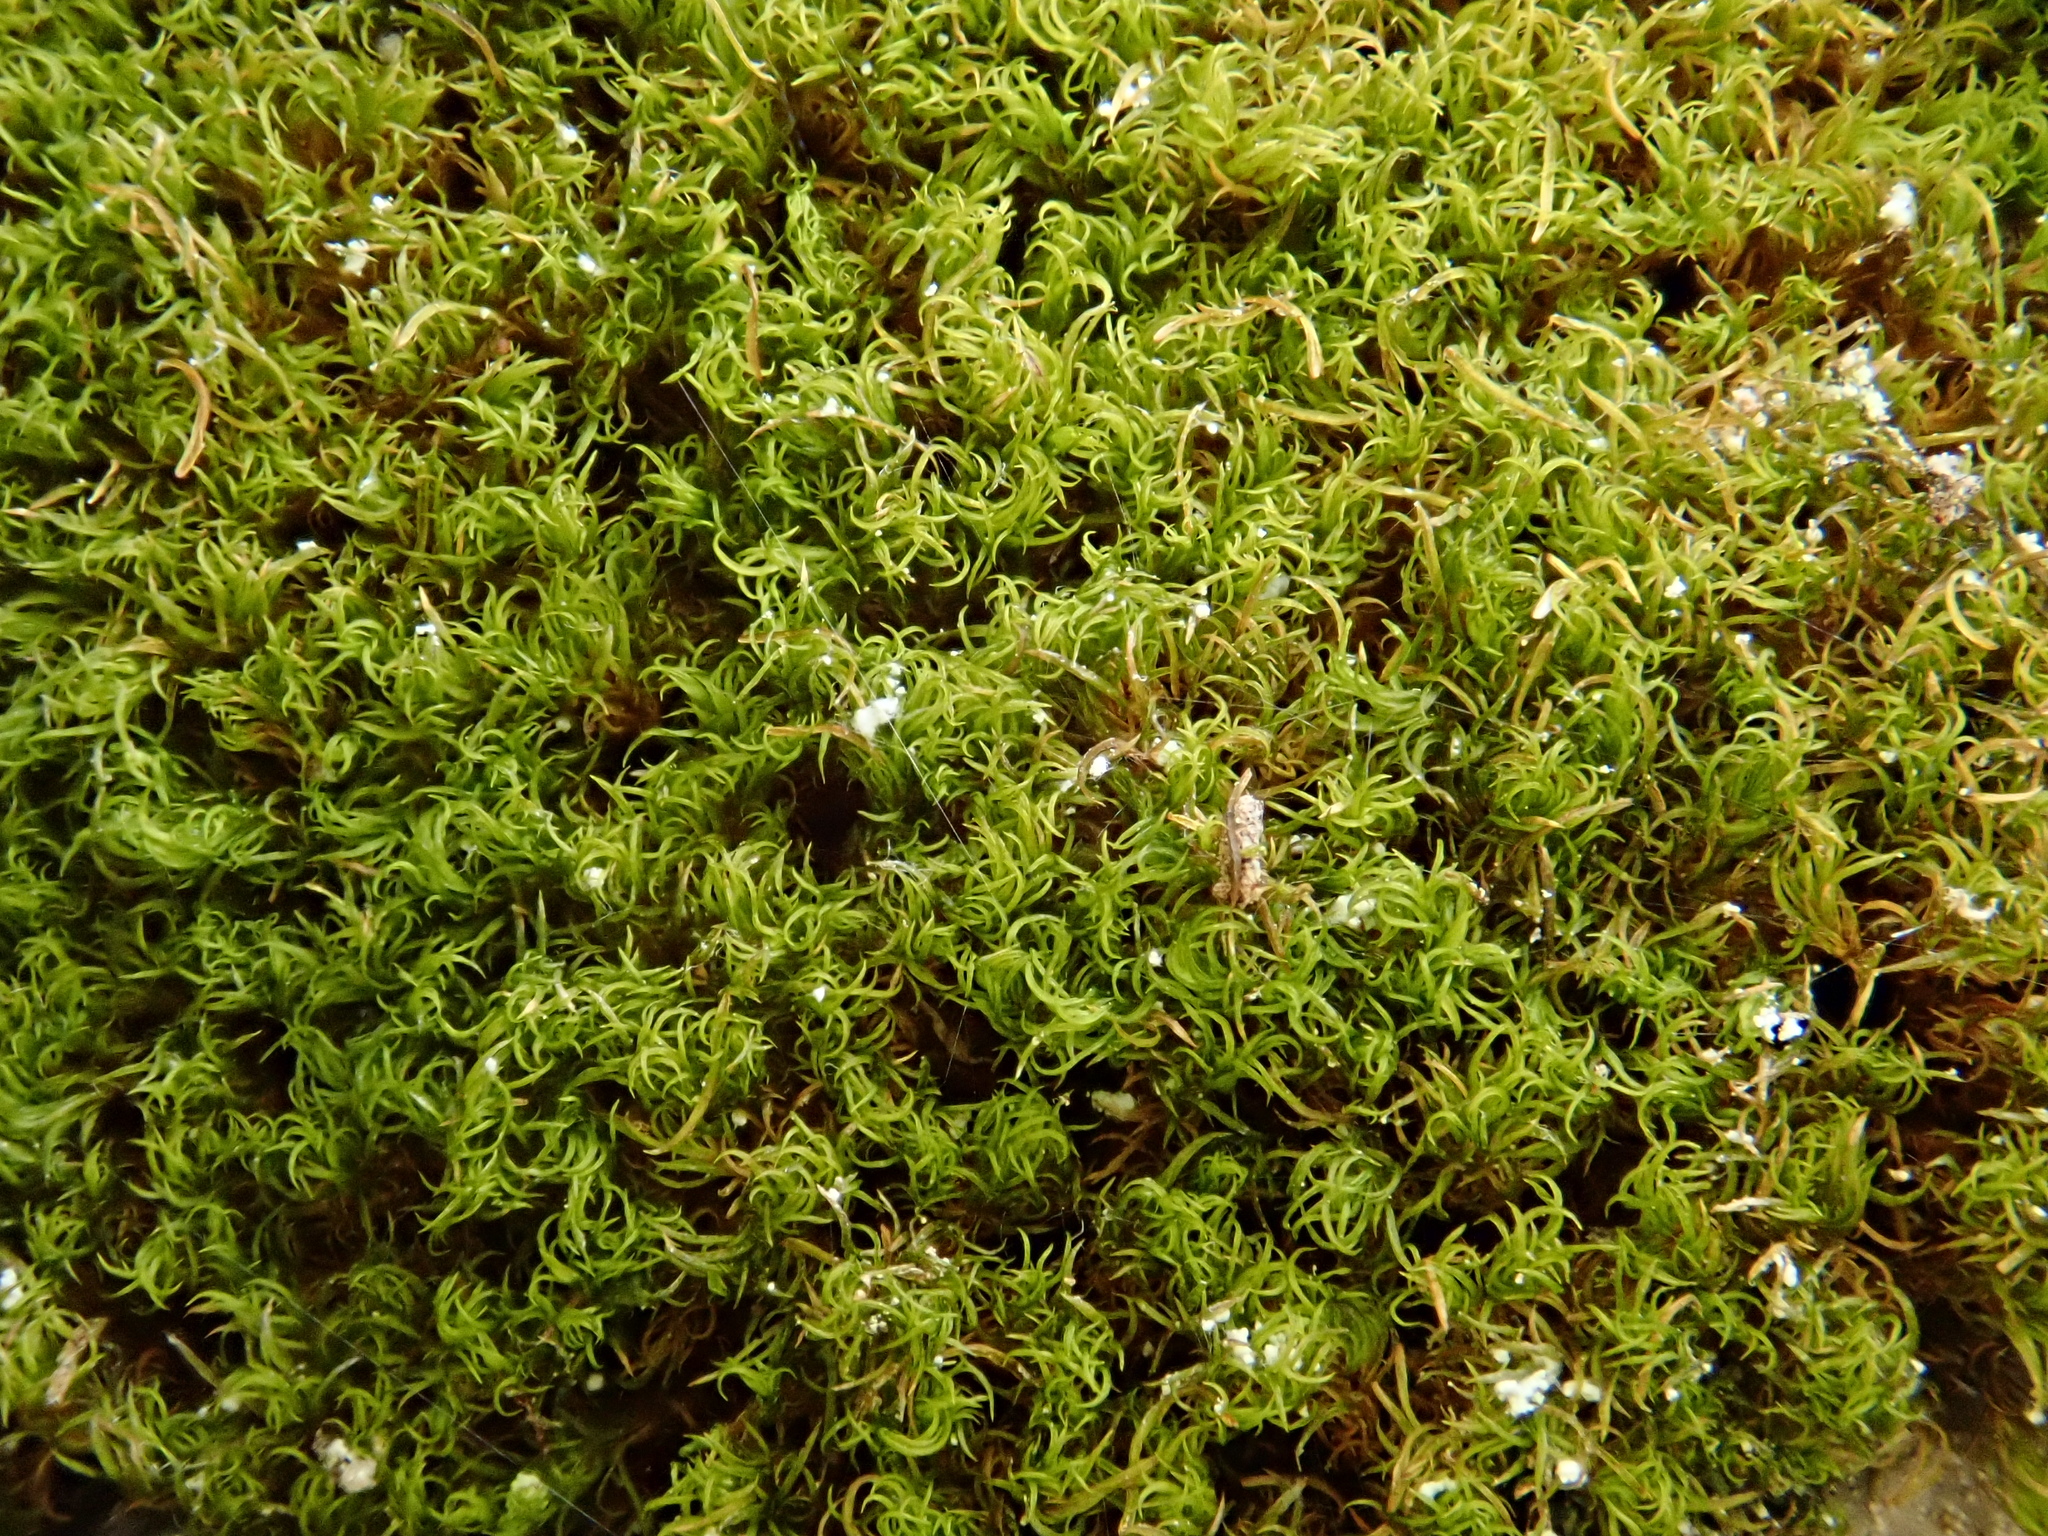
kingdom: Plantae
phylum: Bryophyta
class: Bryopsida
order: Dicranales
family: Amphidiaceae
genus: Amphidium
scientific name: Amphidium mougeotii
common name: Mougeot's yoke moss
